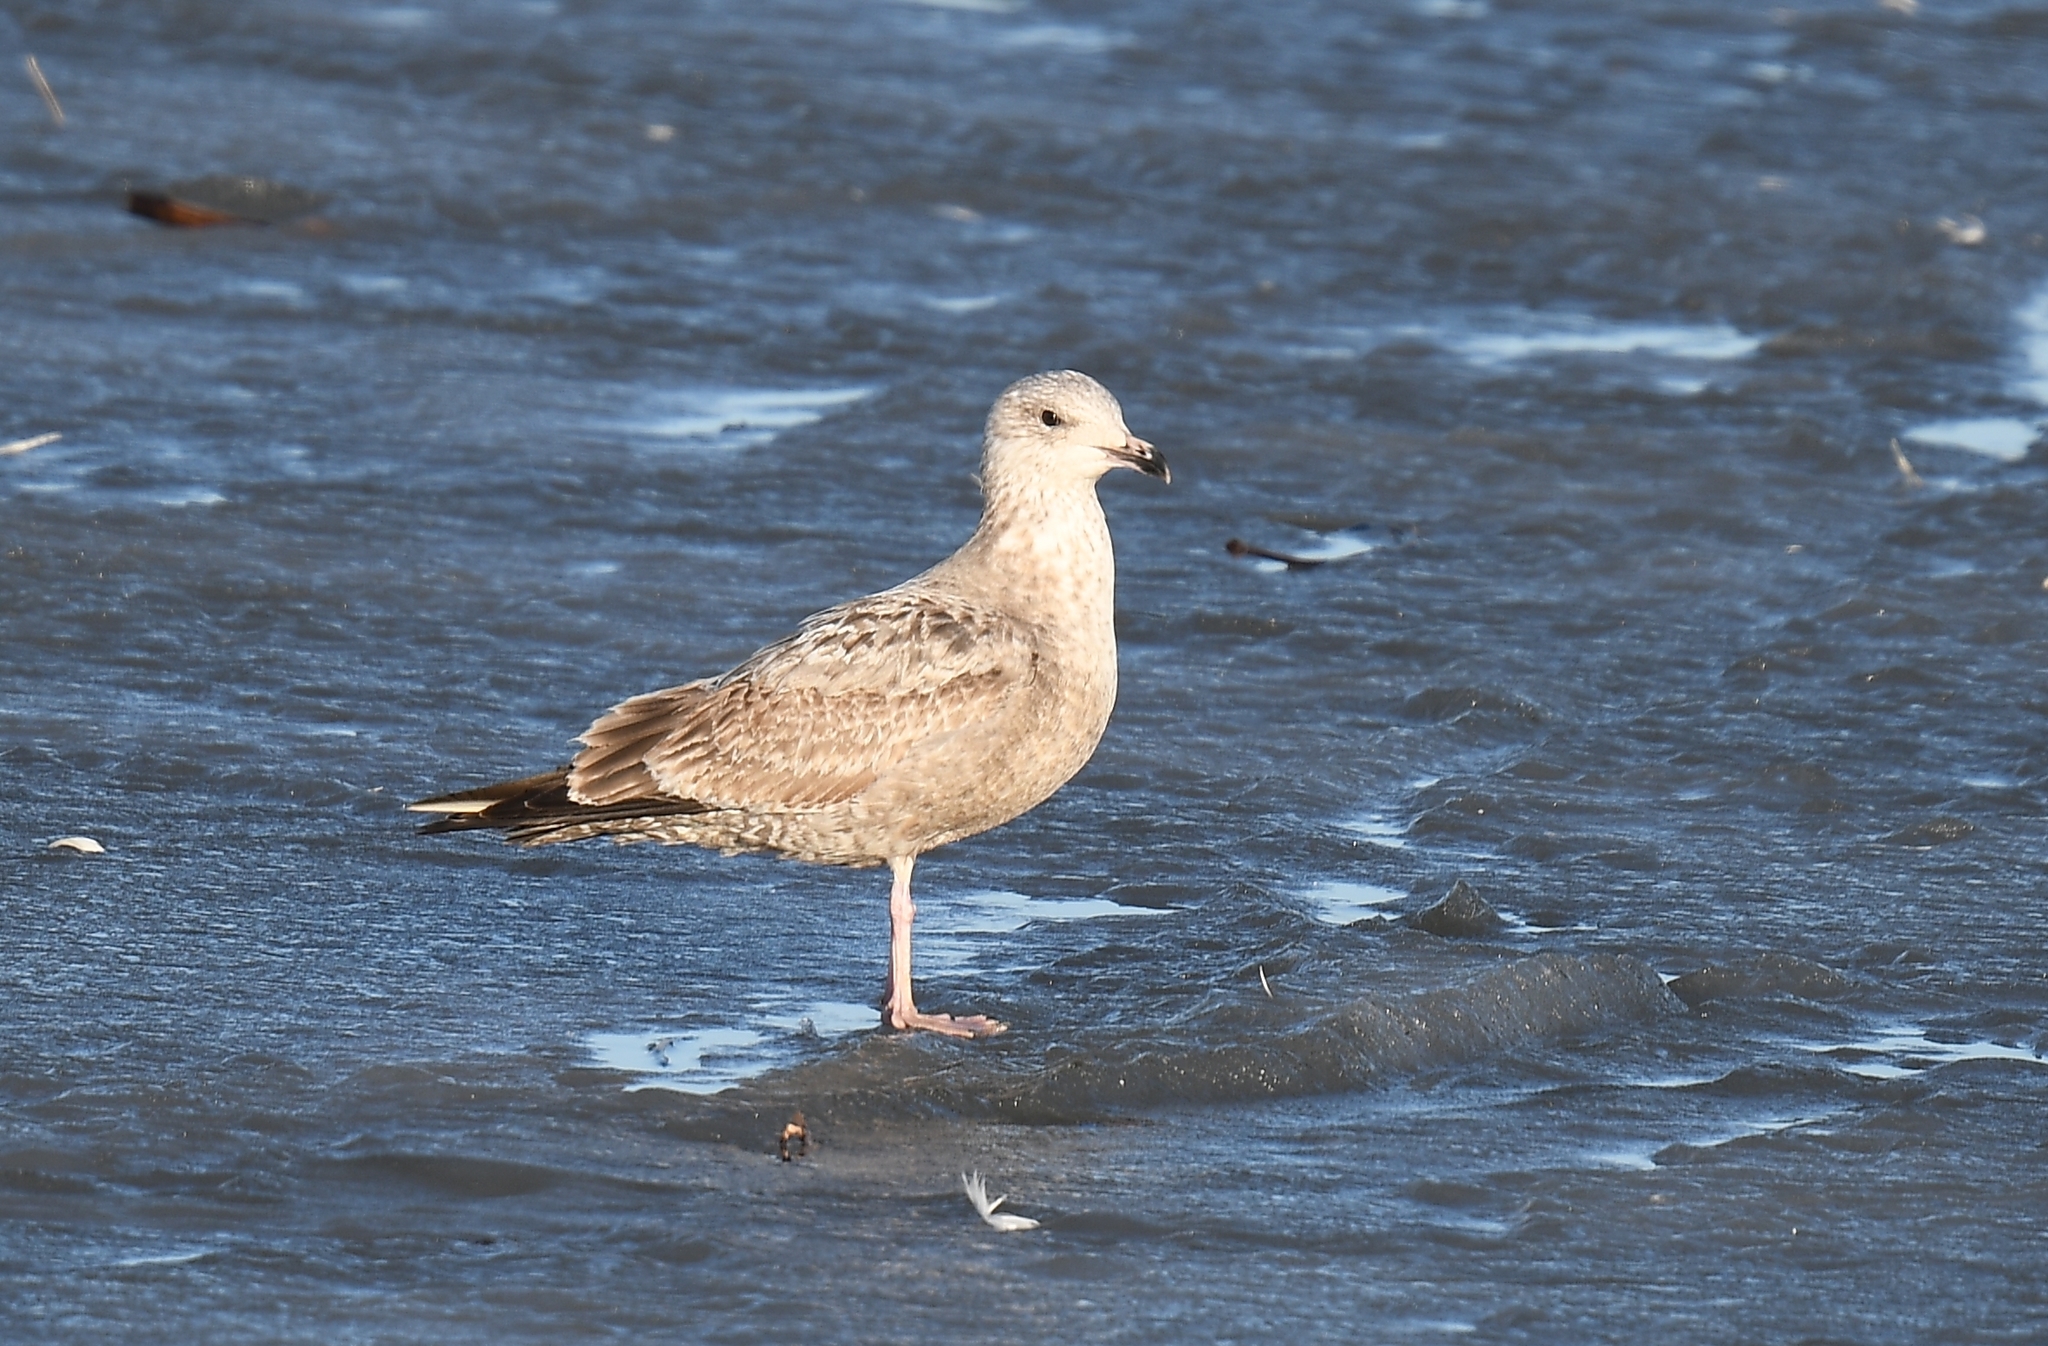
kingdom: Animalia
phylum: Chordata
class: Aves
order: Charadriiformes
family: Laridae
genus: Larus
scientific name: Larus argentatus
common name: Herring gull
